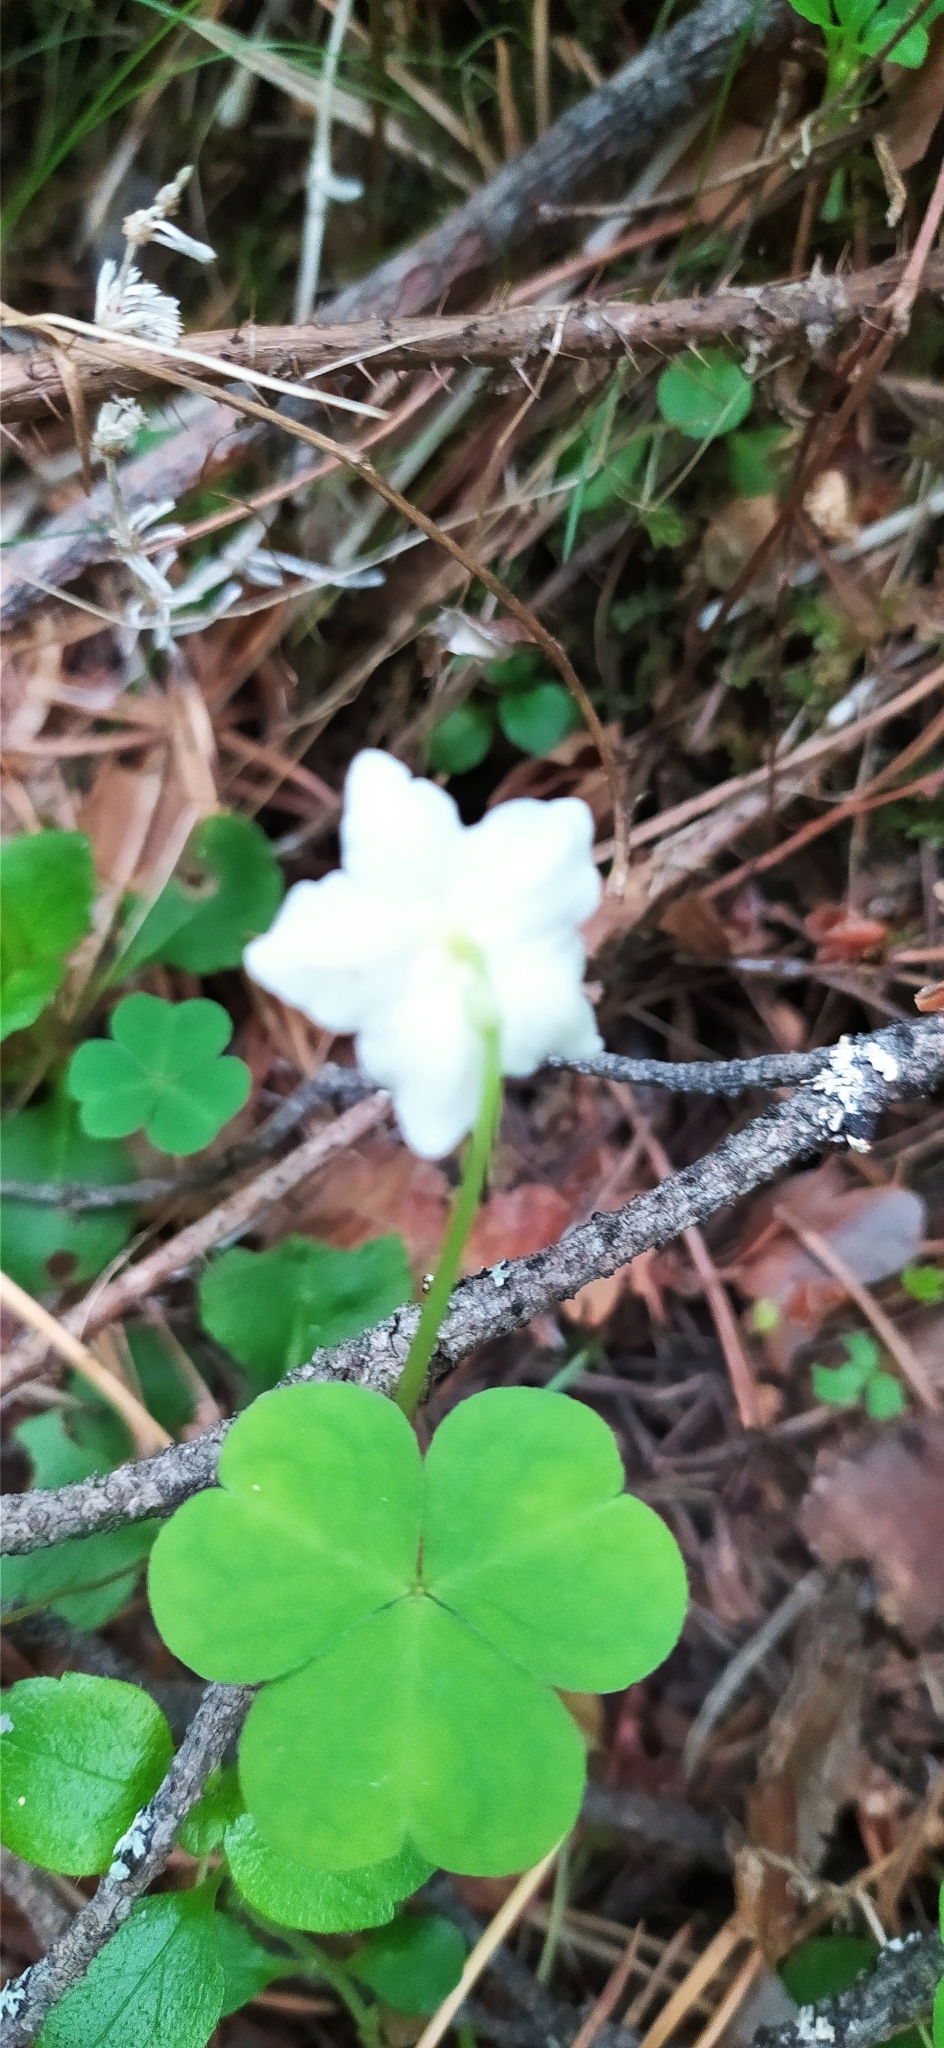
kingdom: Plantae
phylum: Tracheophyta
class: Magnoliopsida
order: Ericales
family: Ericaceae
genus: Moneses
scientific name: Moneses uniflora
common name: One-flowered wintergreen
